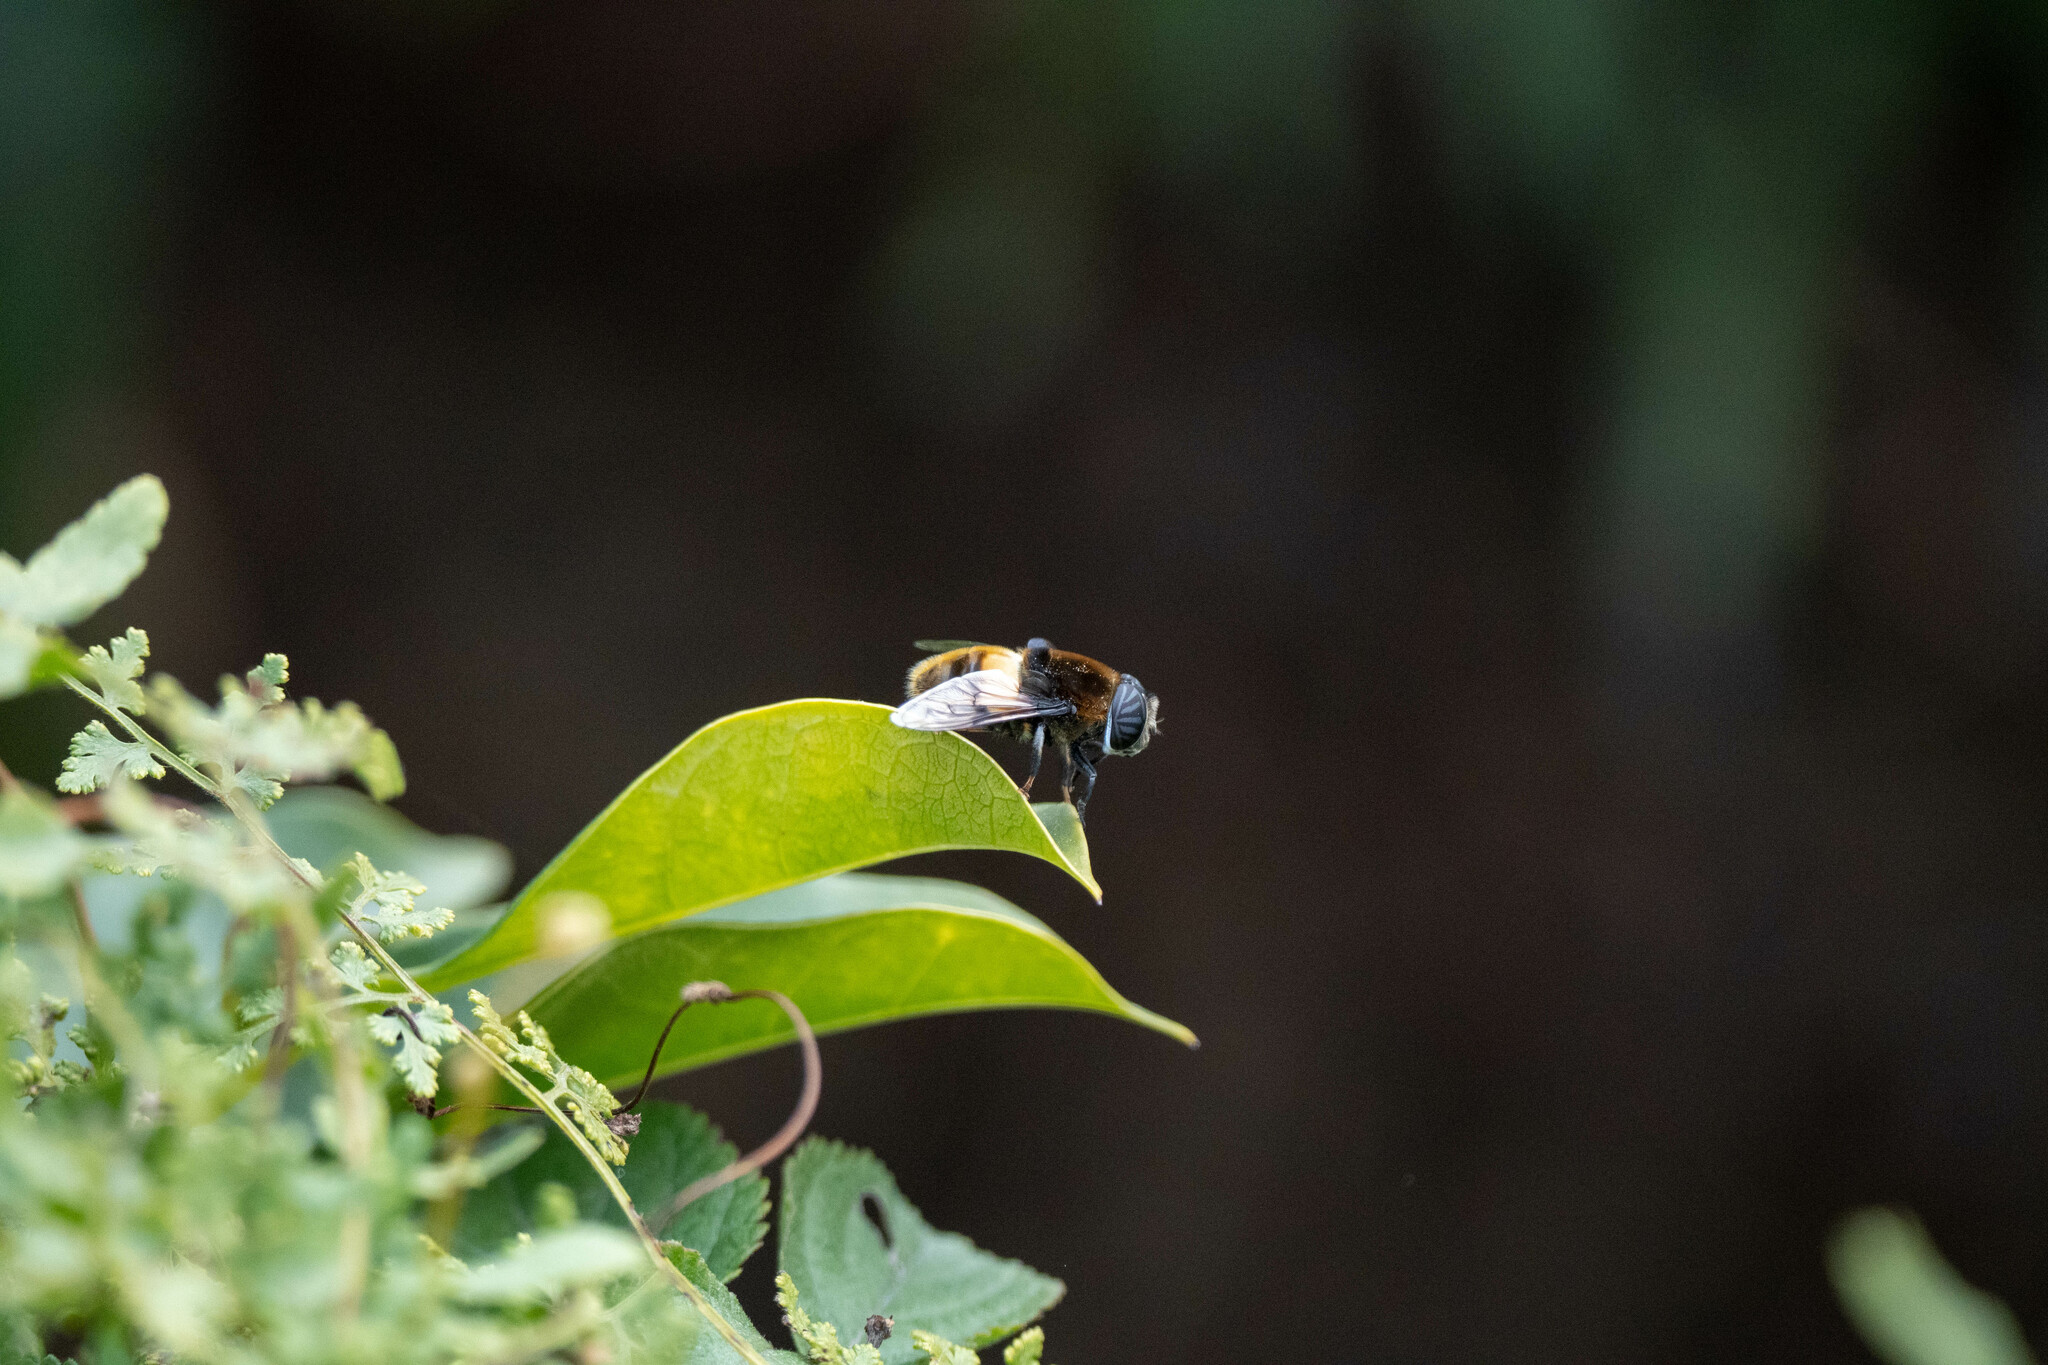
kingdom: Animalia
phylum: Arthropoda
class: Insecta
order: Diptera
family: Syrphidae
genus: Phytomia
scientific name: Phytomia zonata
